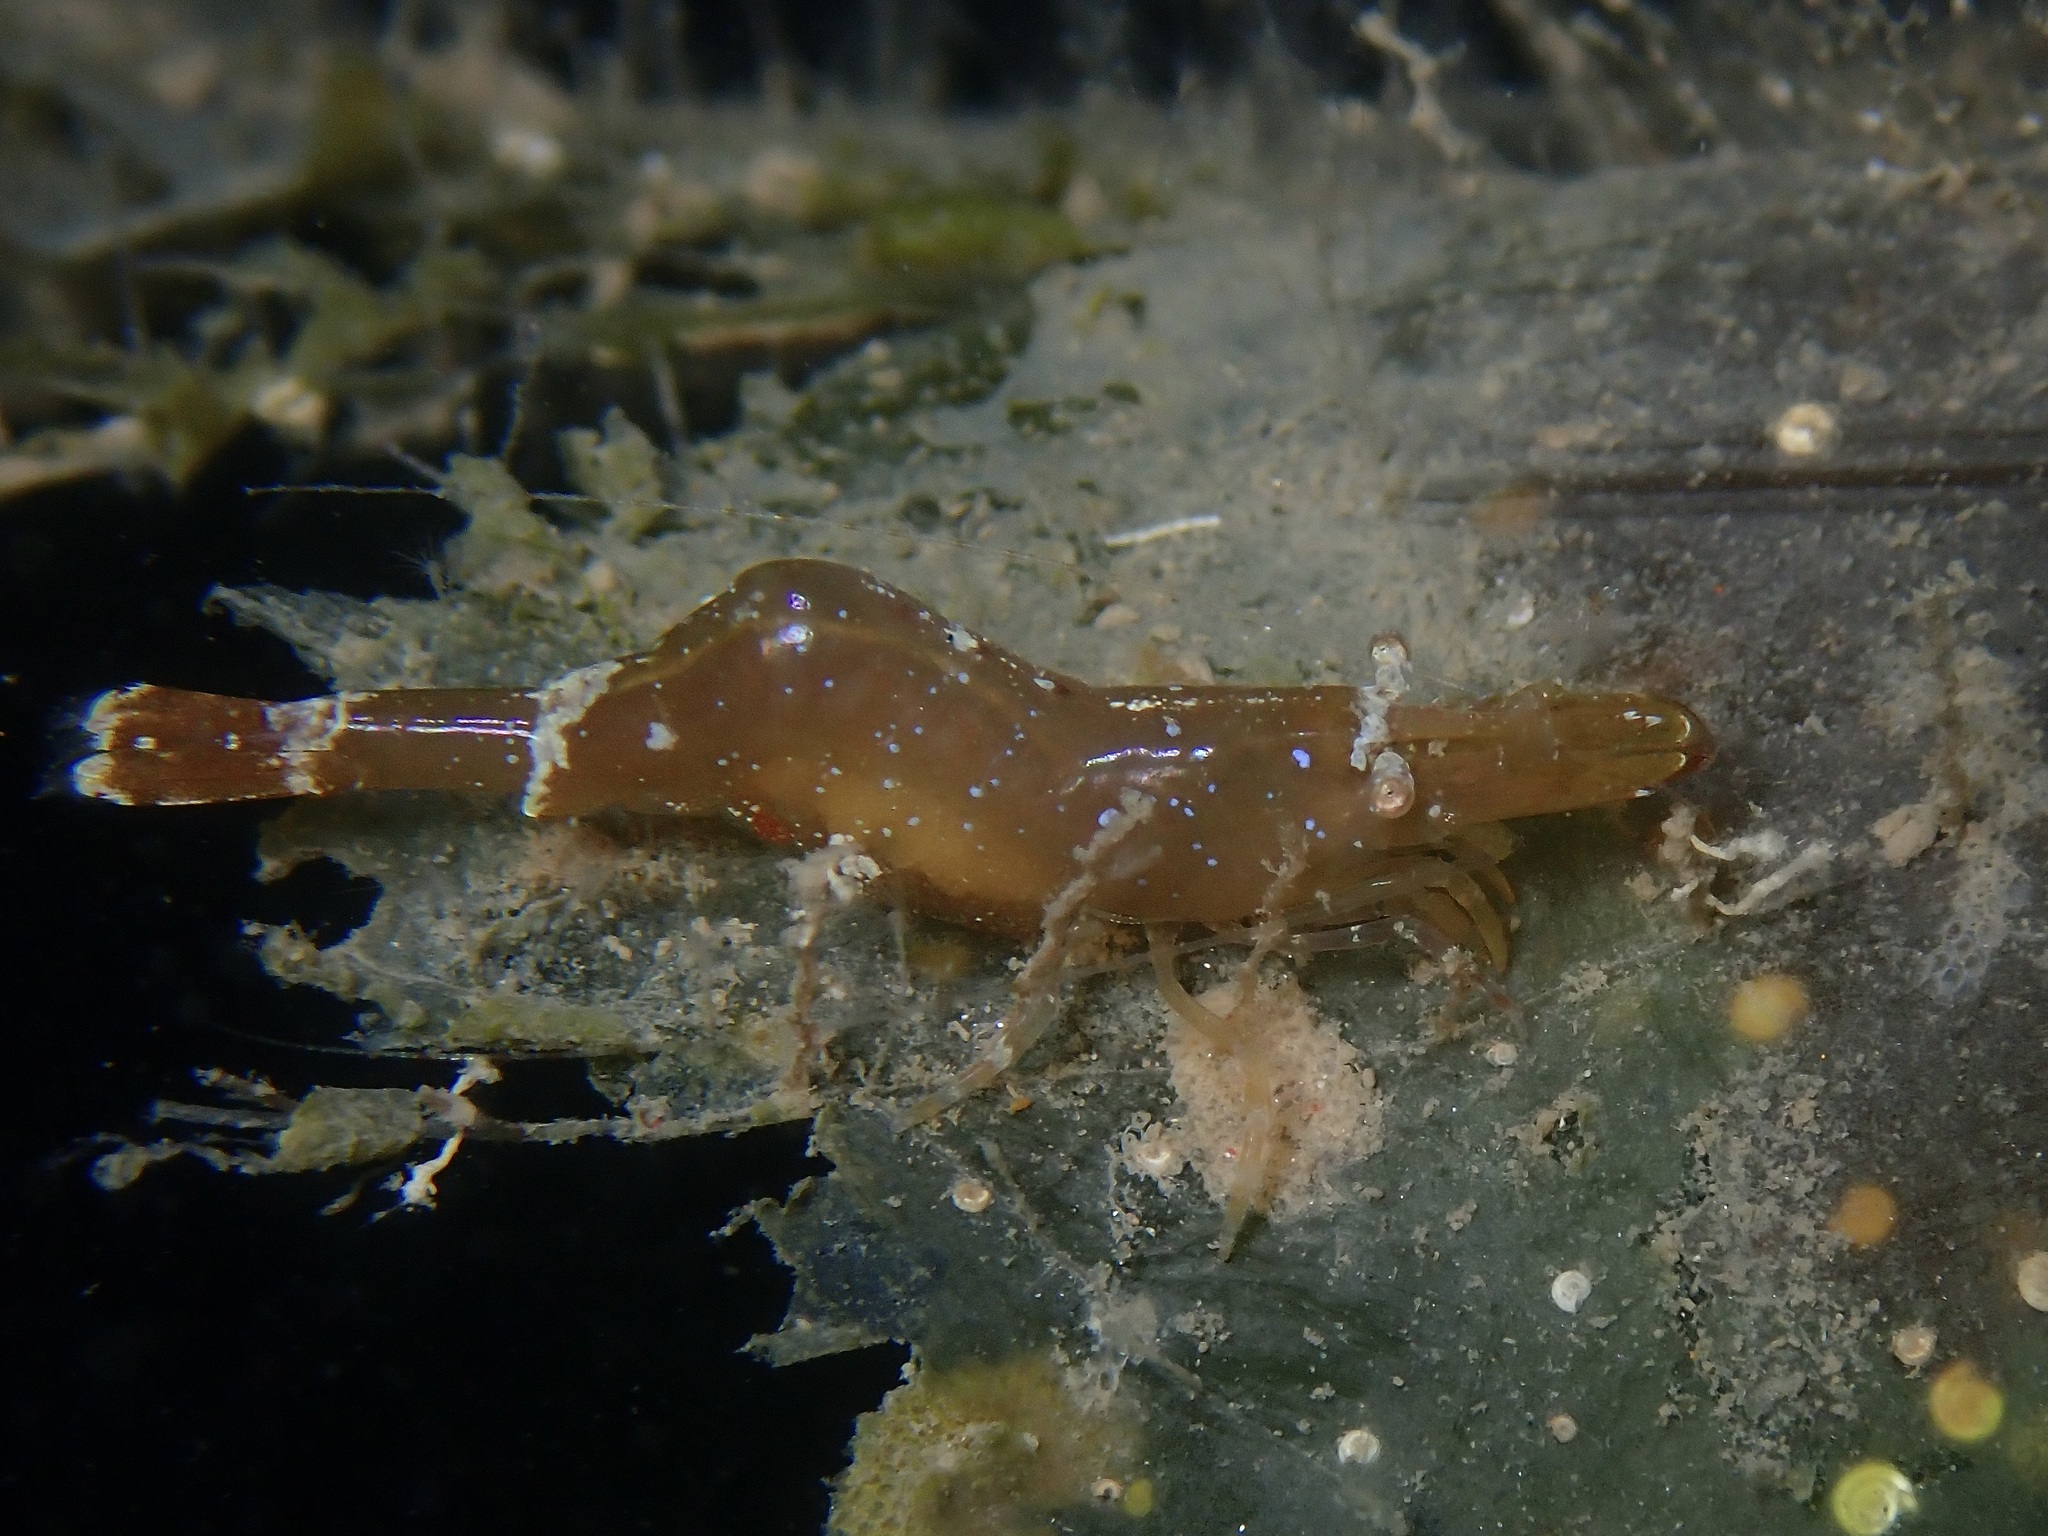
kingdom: Animalia
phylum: Arthropoda
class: Malacostraca
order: Decapoda
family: Hippolytidae
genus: Hippolyte
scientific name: Hippolyte varians
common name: Chamaeleon prawn
